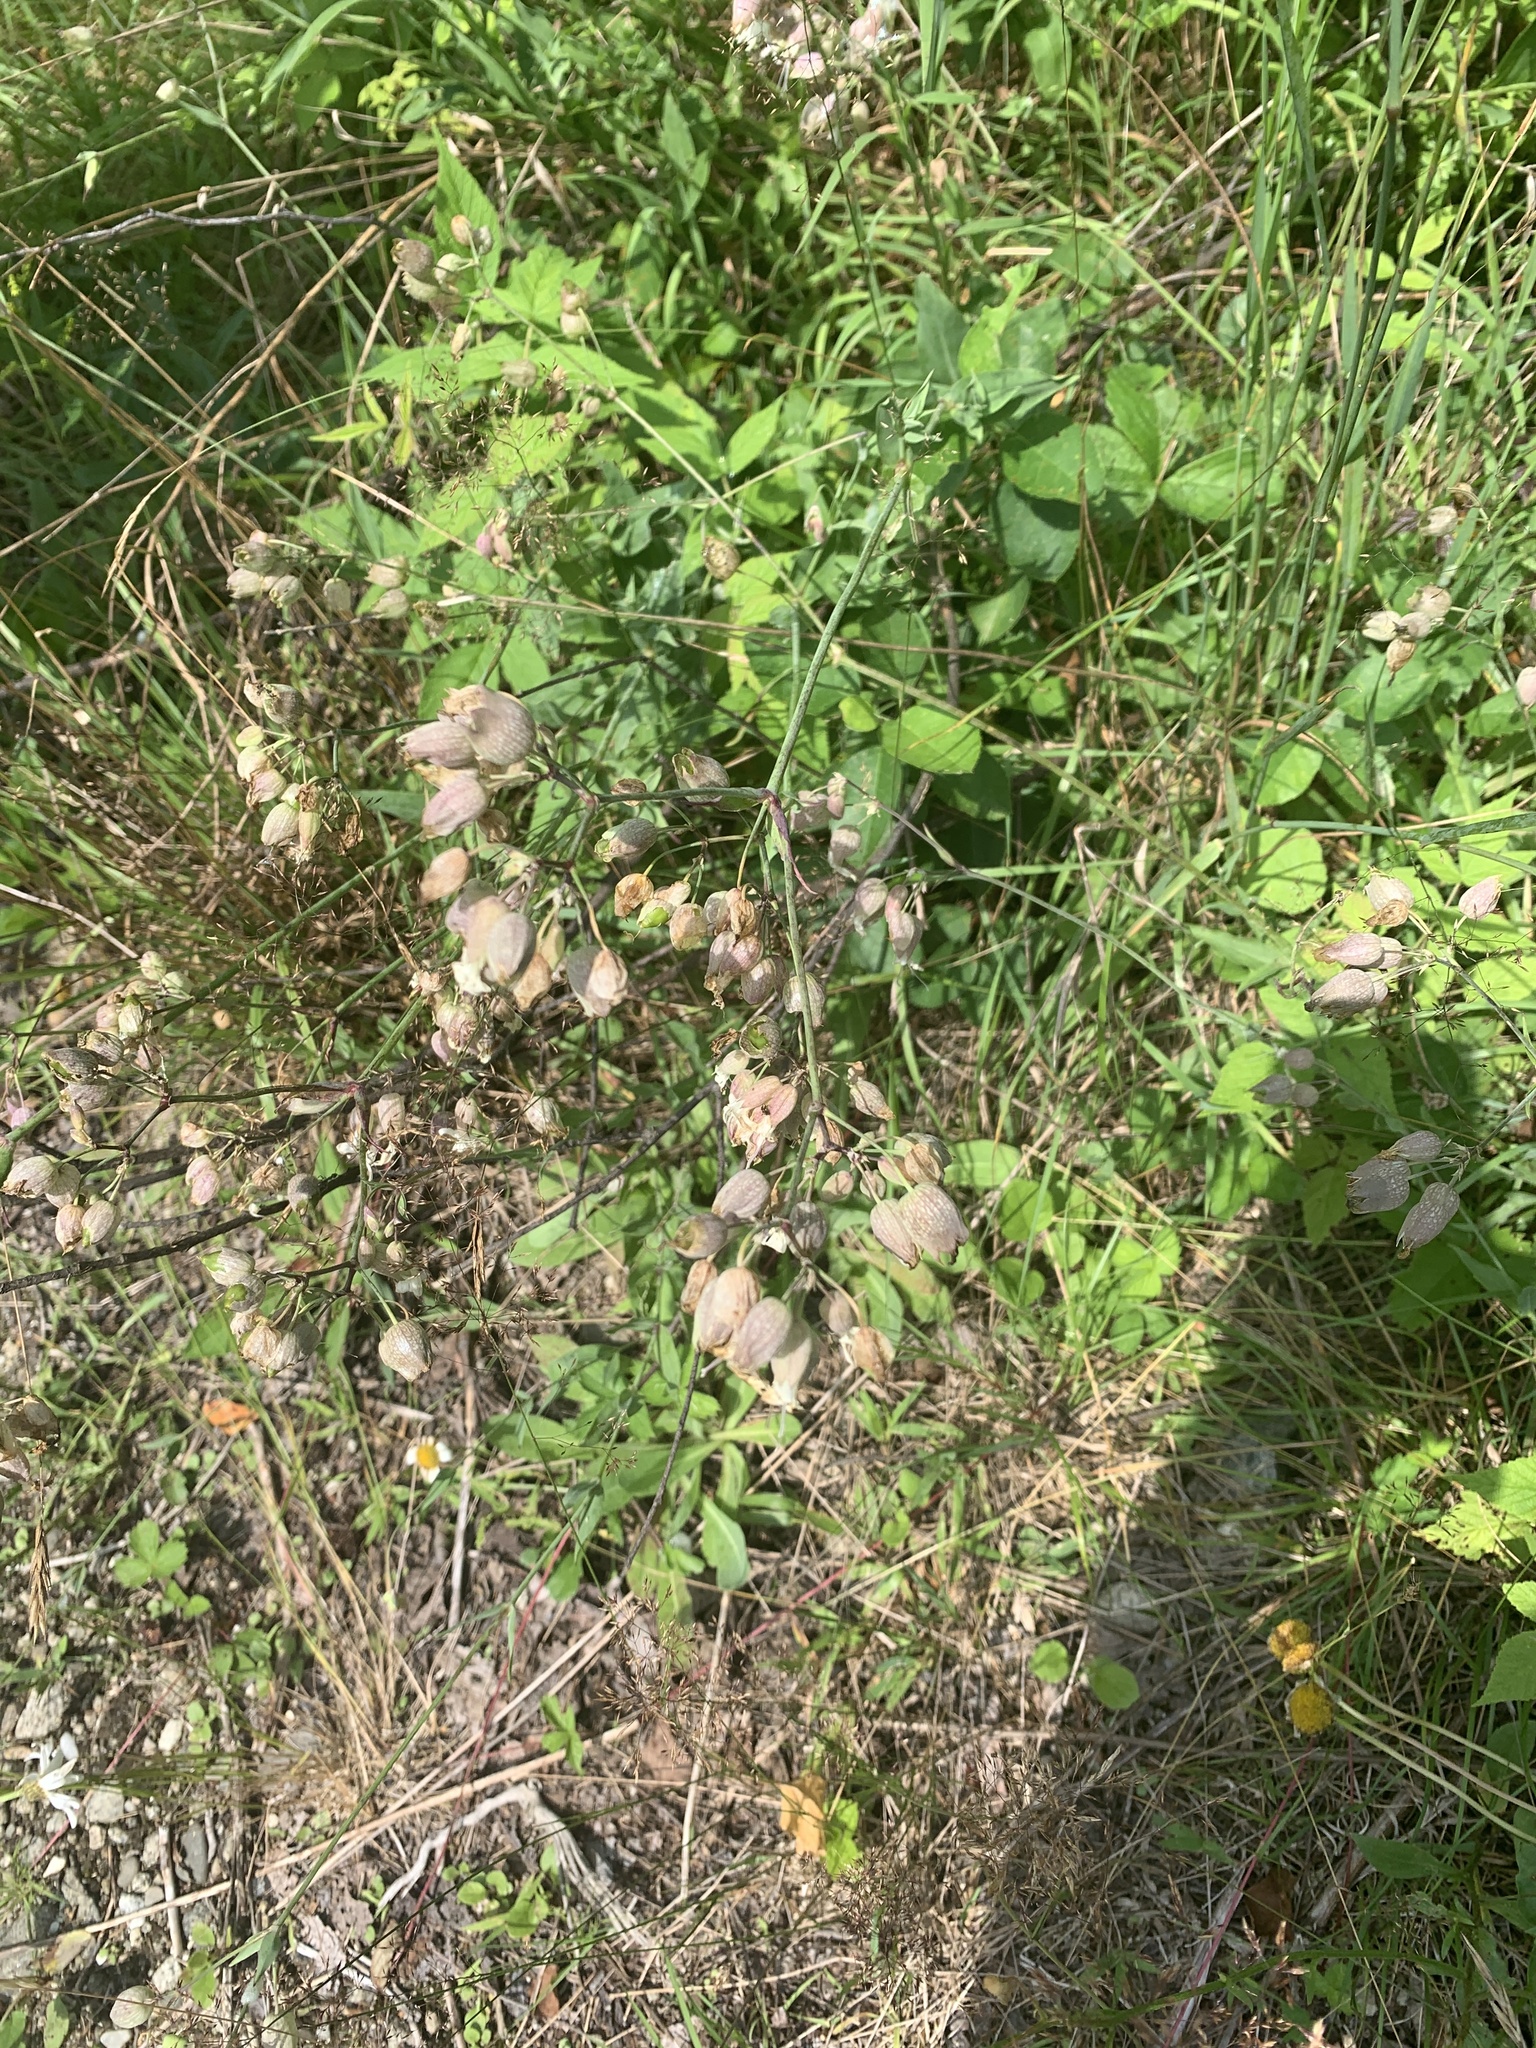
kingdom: Plantae
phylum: Tracheophyta
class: Magnoliopsida
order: Caryophyllales
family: Caryophyllaceae
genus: Silene
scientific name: Silene vulgaris
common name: Bladder campion
